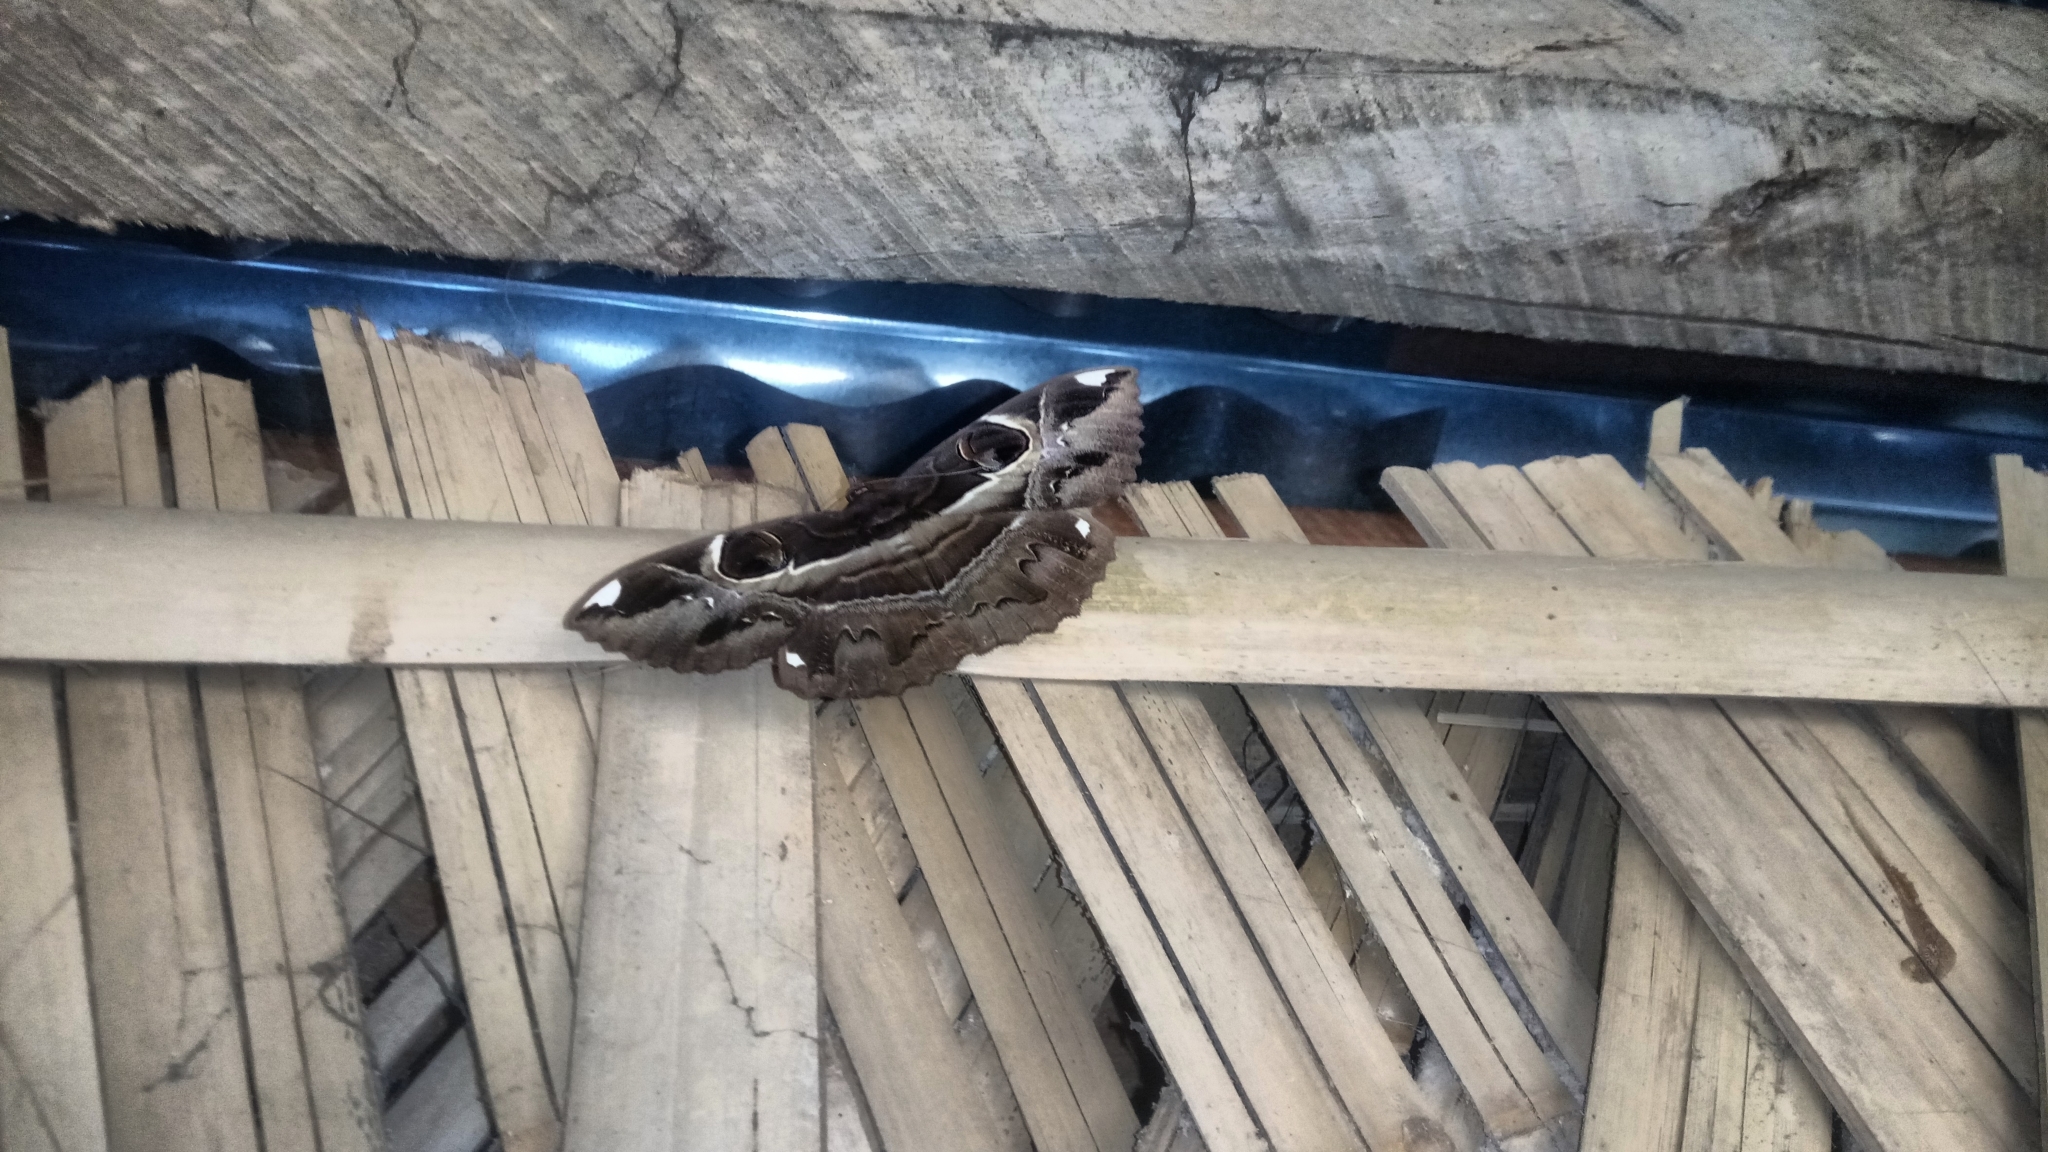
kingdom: Animalia
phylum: Arthropoda
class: Insecta
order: Lepidoptera
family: Erebidae
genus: Erebus
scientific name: Erebus ephesperis
